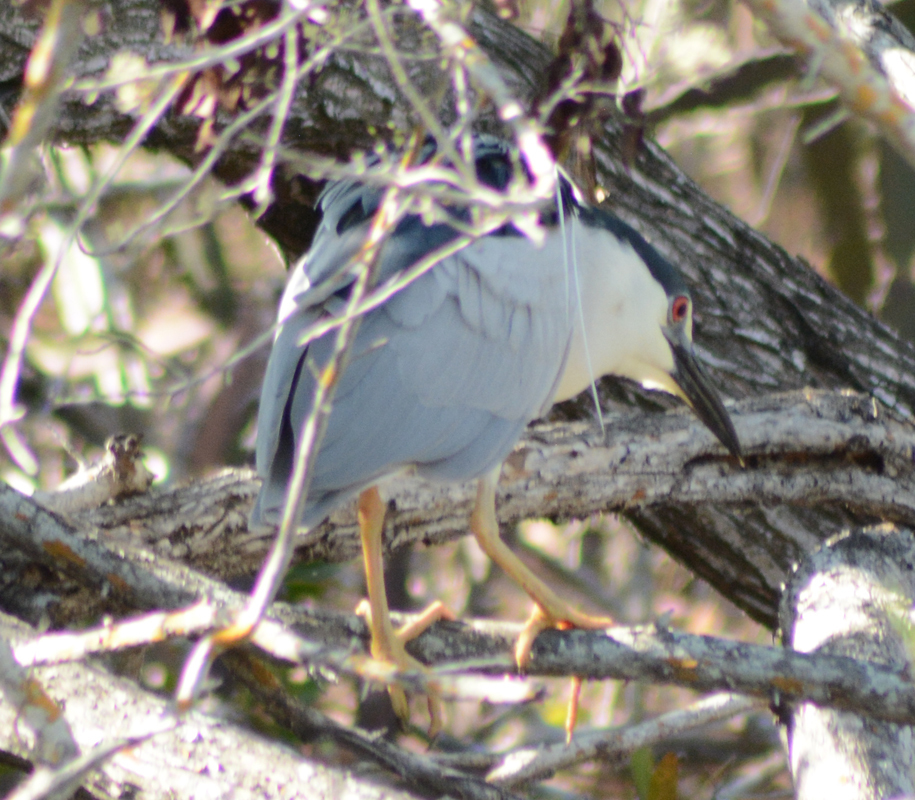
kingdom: Animalia
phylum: Chordata
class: Aves
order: Pelecaniformes
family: Ardeidae
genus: Nycticorax
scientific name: Nycticorax nycticorax
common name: Black-crowned night heron
